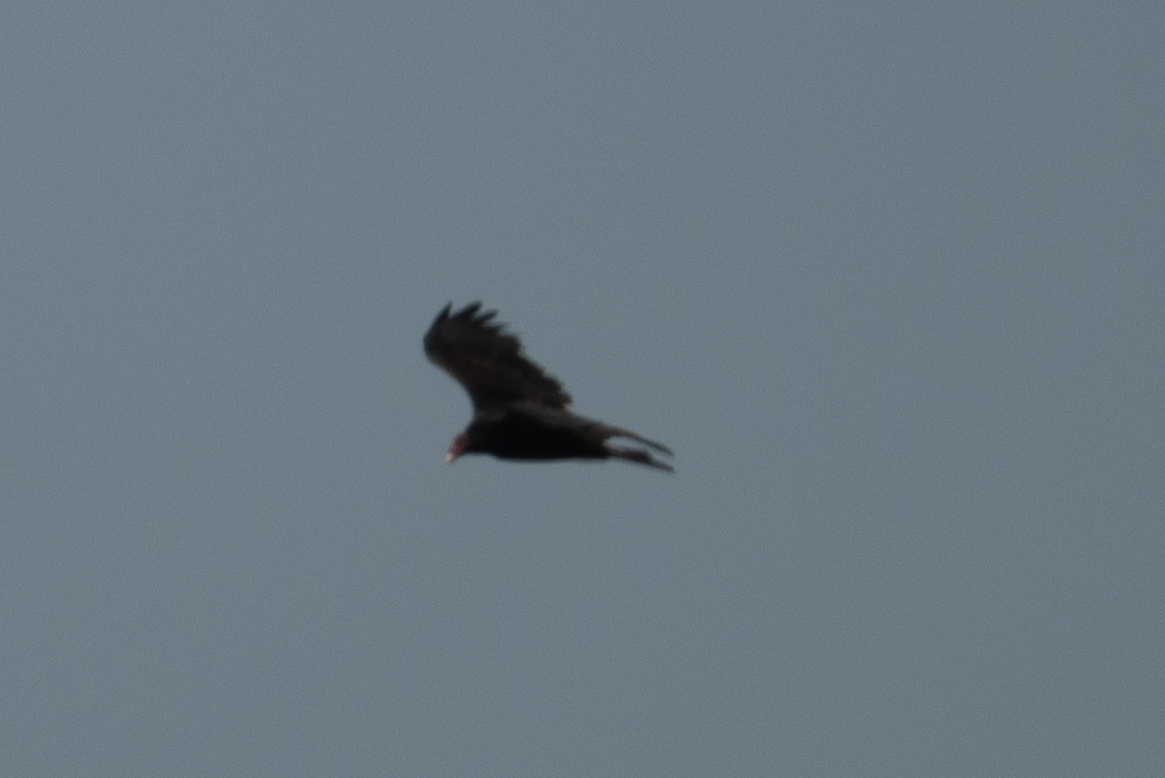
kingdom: Animalia
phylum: Chordata
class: Aves
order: Accipitriformes
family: Cathartidae
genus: Cathartes
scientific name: Cathartes aura
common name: Turkey vulture
